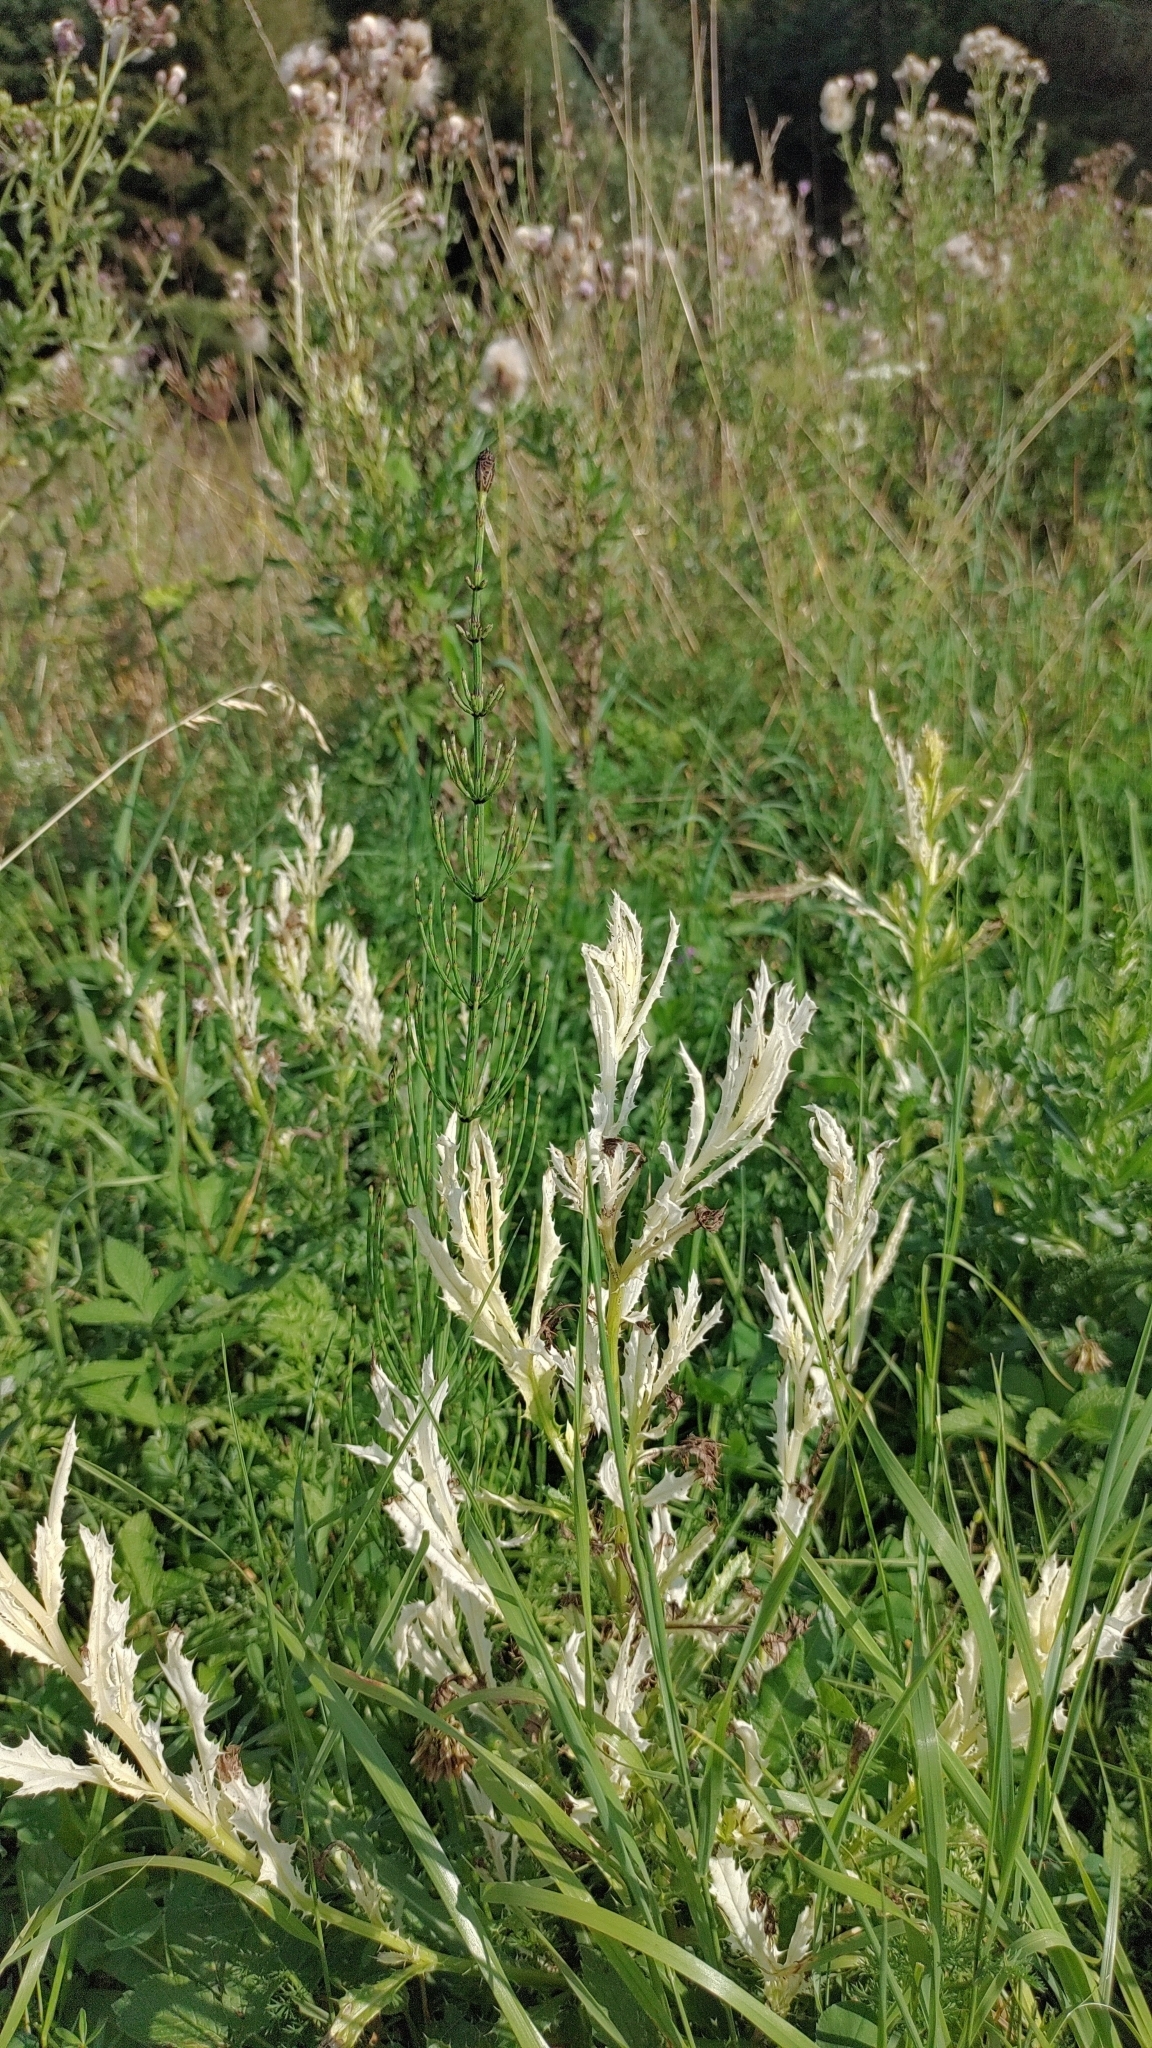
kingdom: Plantae
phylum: Tracheophyta
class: Magnoliopsida
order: Asterales
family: Asteraceae
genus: Cirsium
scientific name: Cirsium arvense
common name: Creeping thistle
